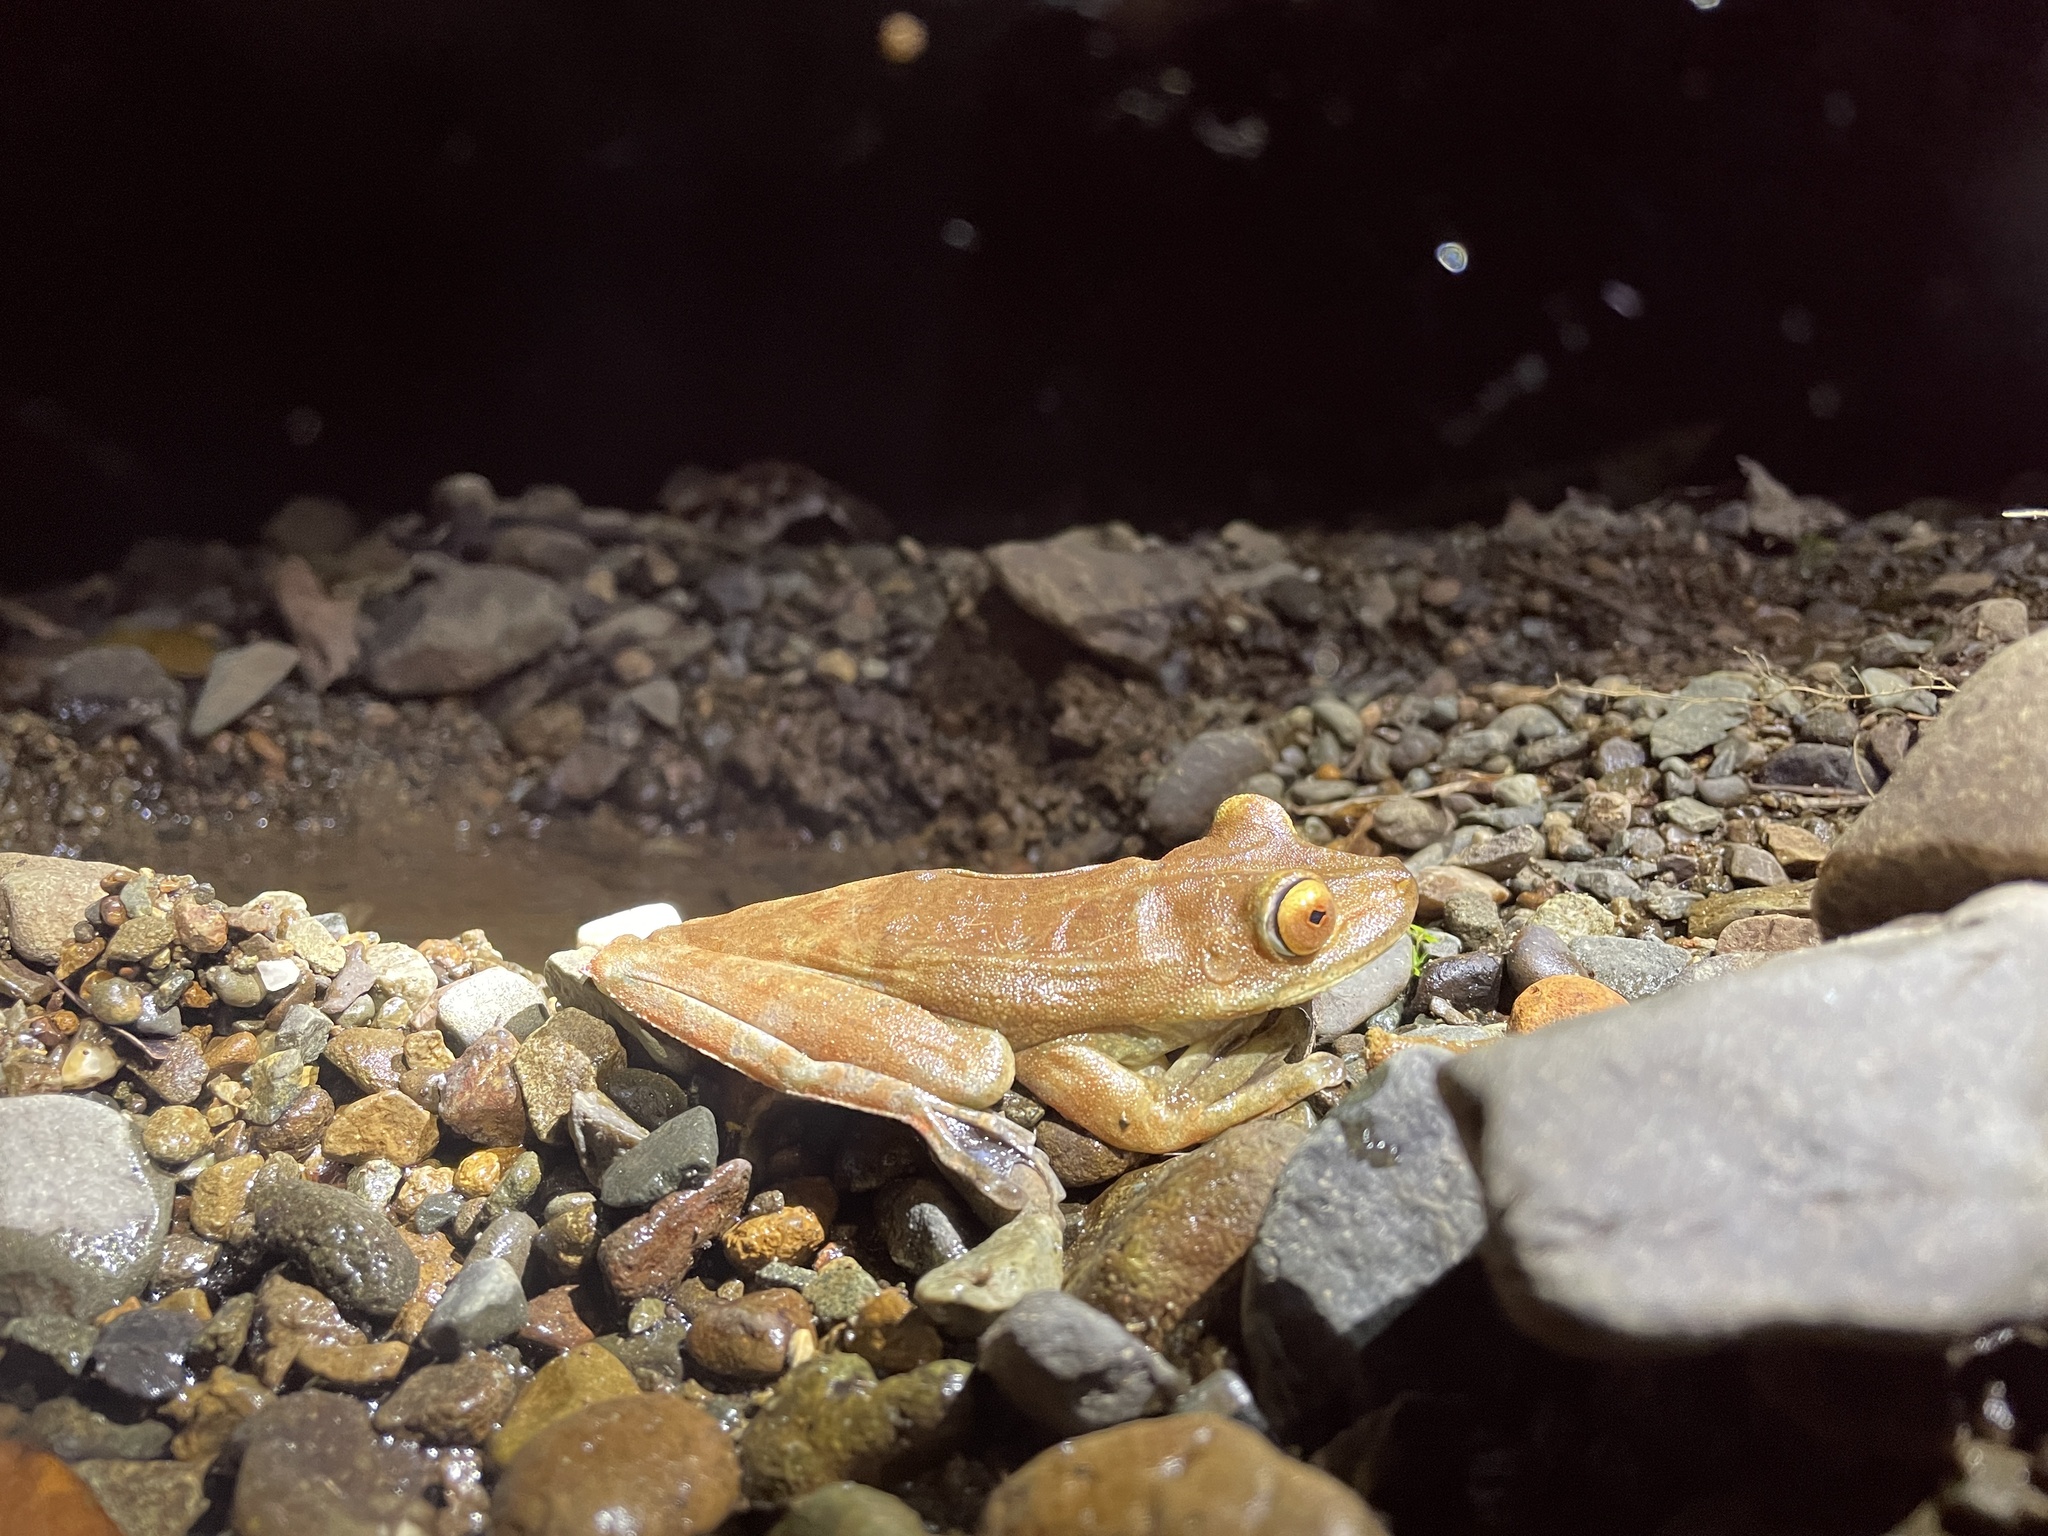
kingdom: Animalia
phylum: Chordata
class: Amphibia
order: Anura
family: Hylidae
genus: Boana
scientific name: Boana boans
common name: Giant gladiator treefrog
